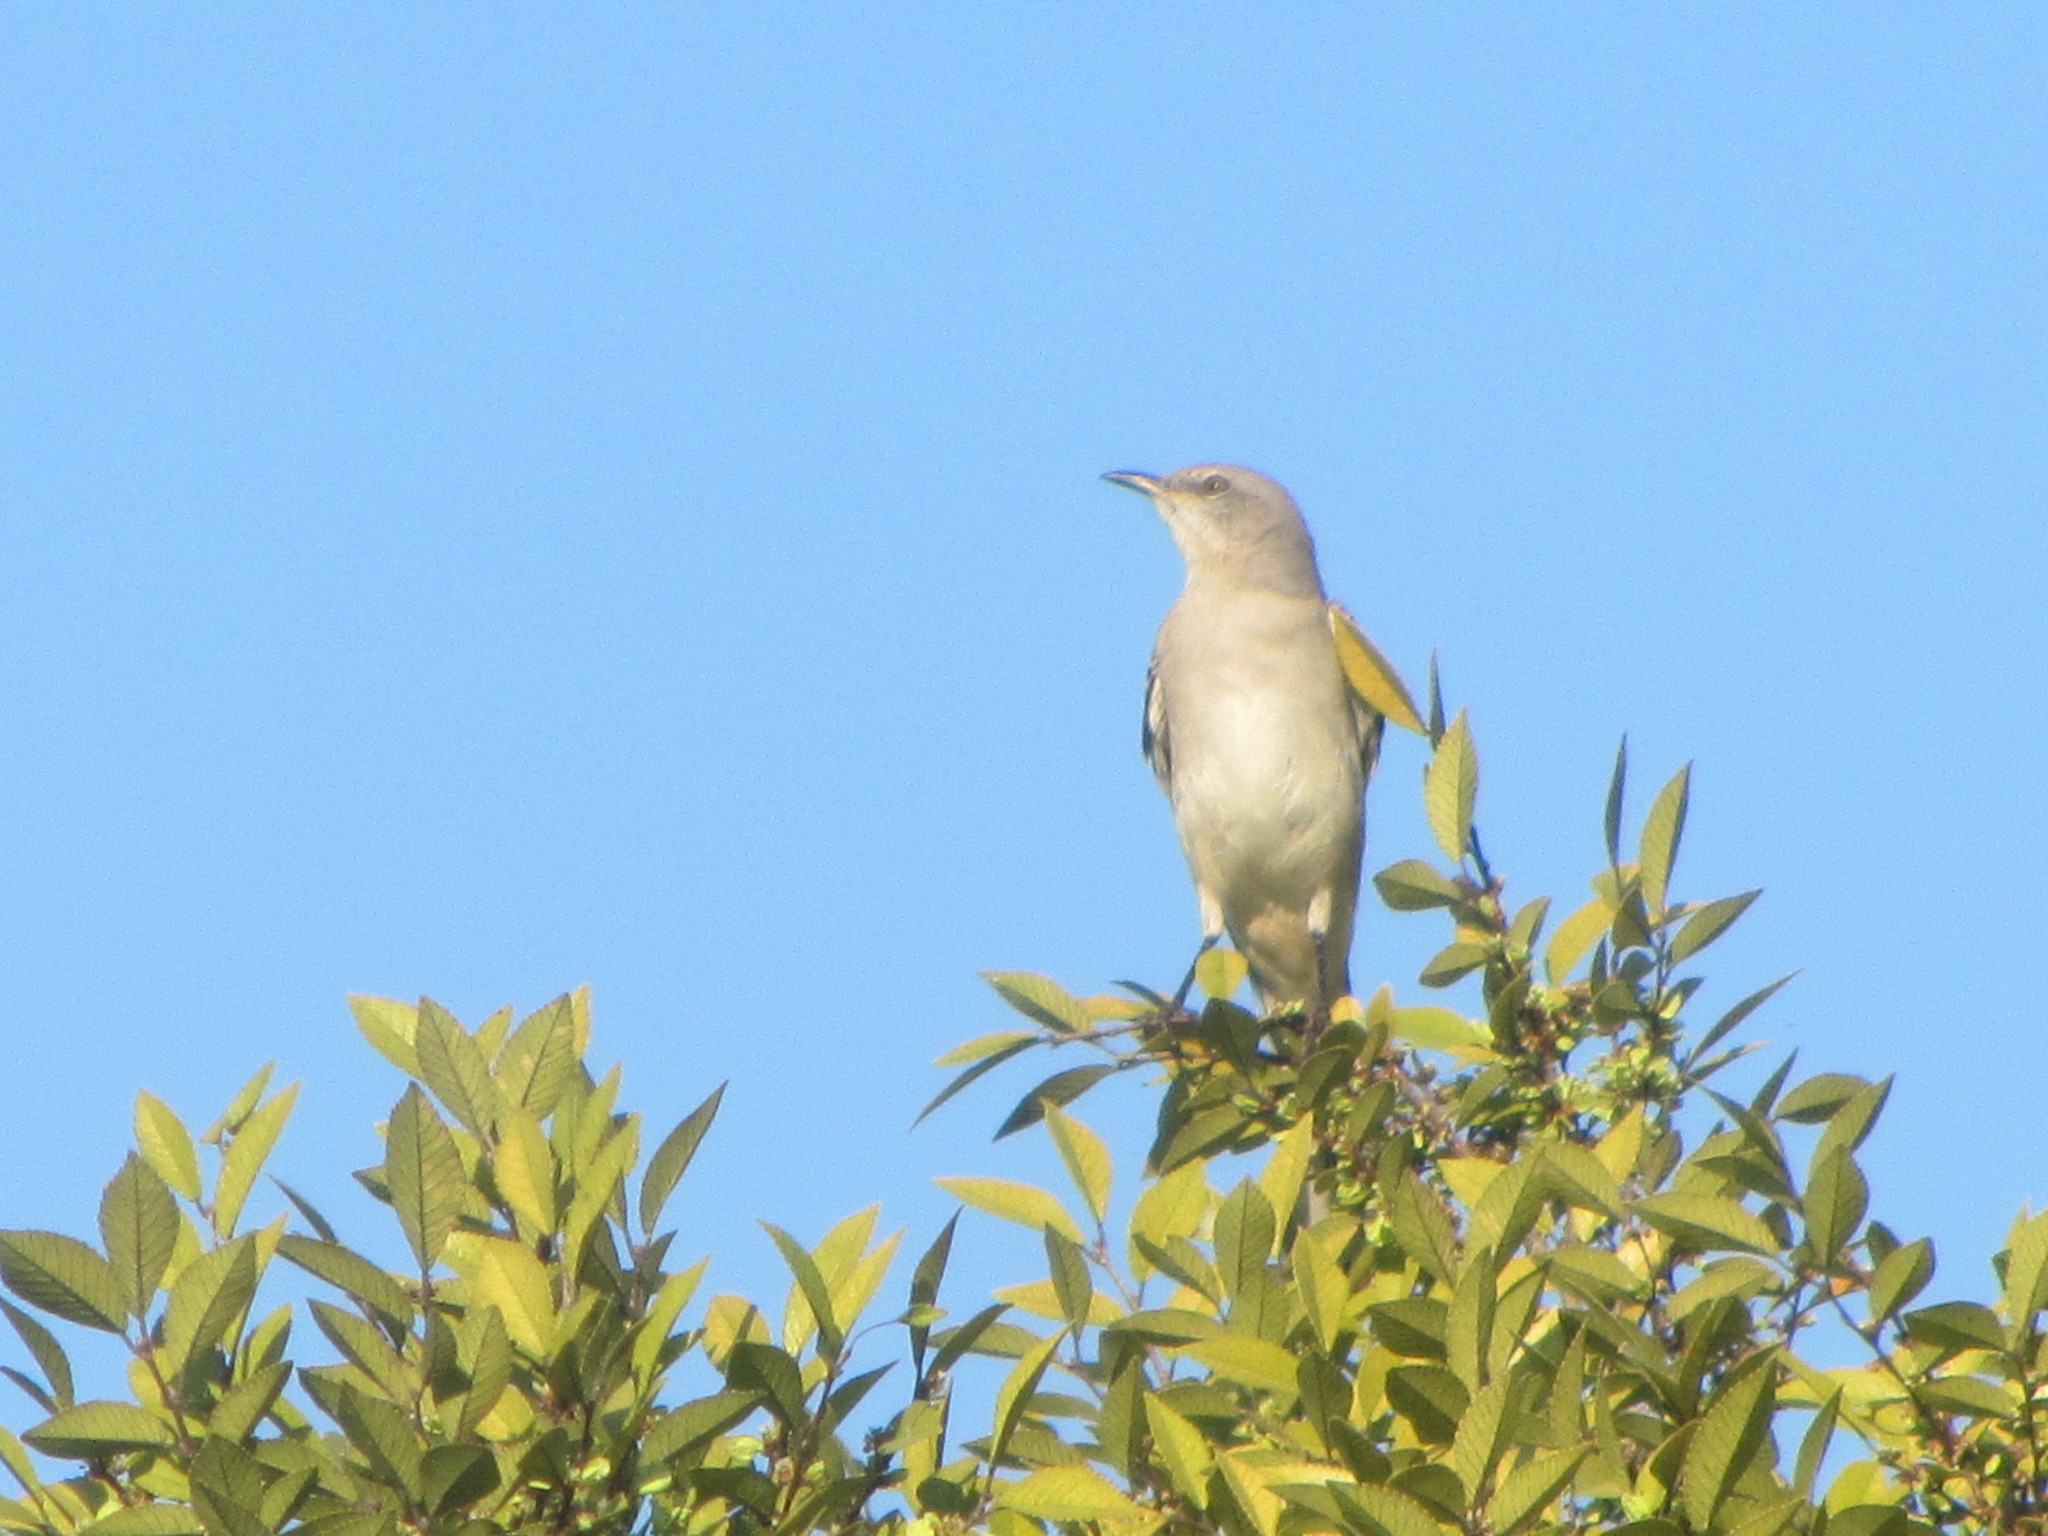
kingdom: Animalia
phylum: Chordata
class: Aves
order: Passeriformes
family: Mimidae
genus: Mimus
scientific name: Mimus polyglottos
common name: Northern mockingbird
